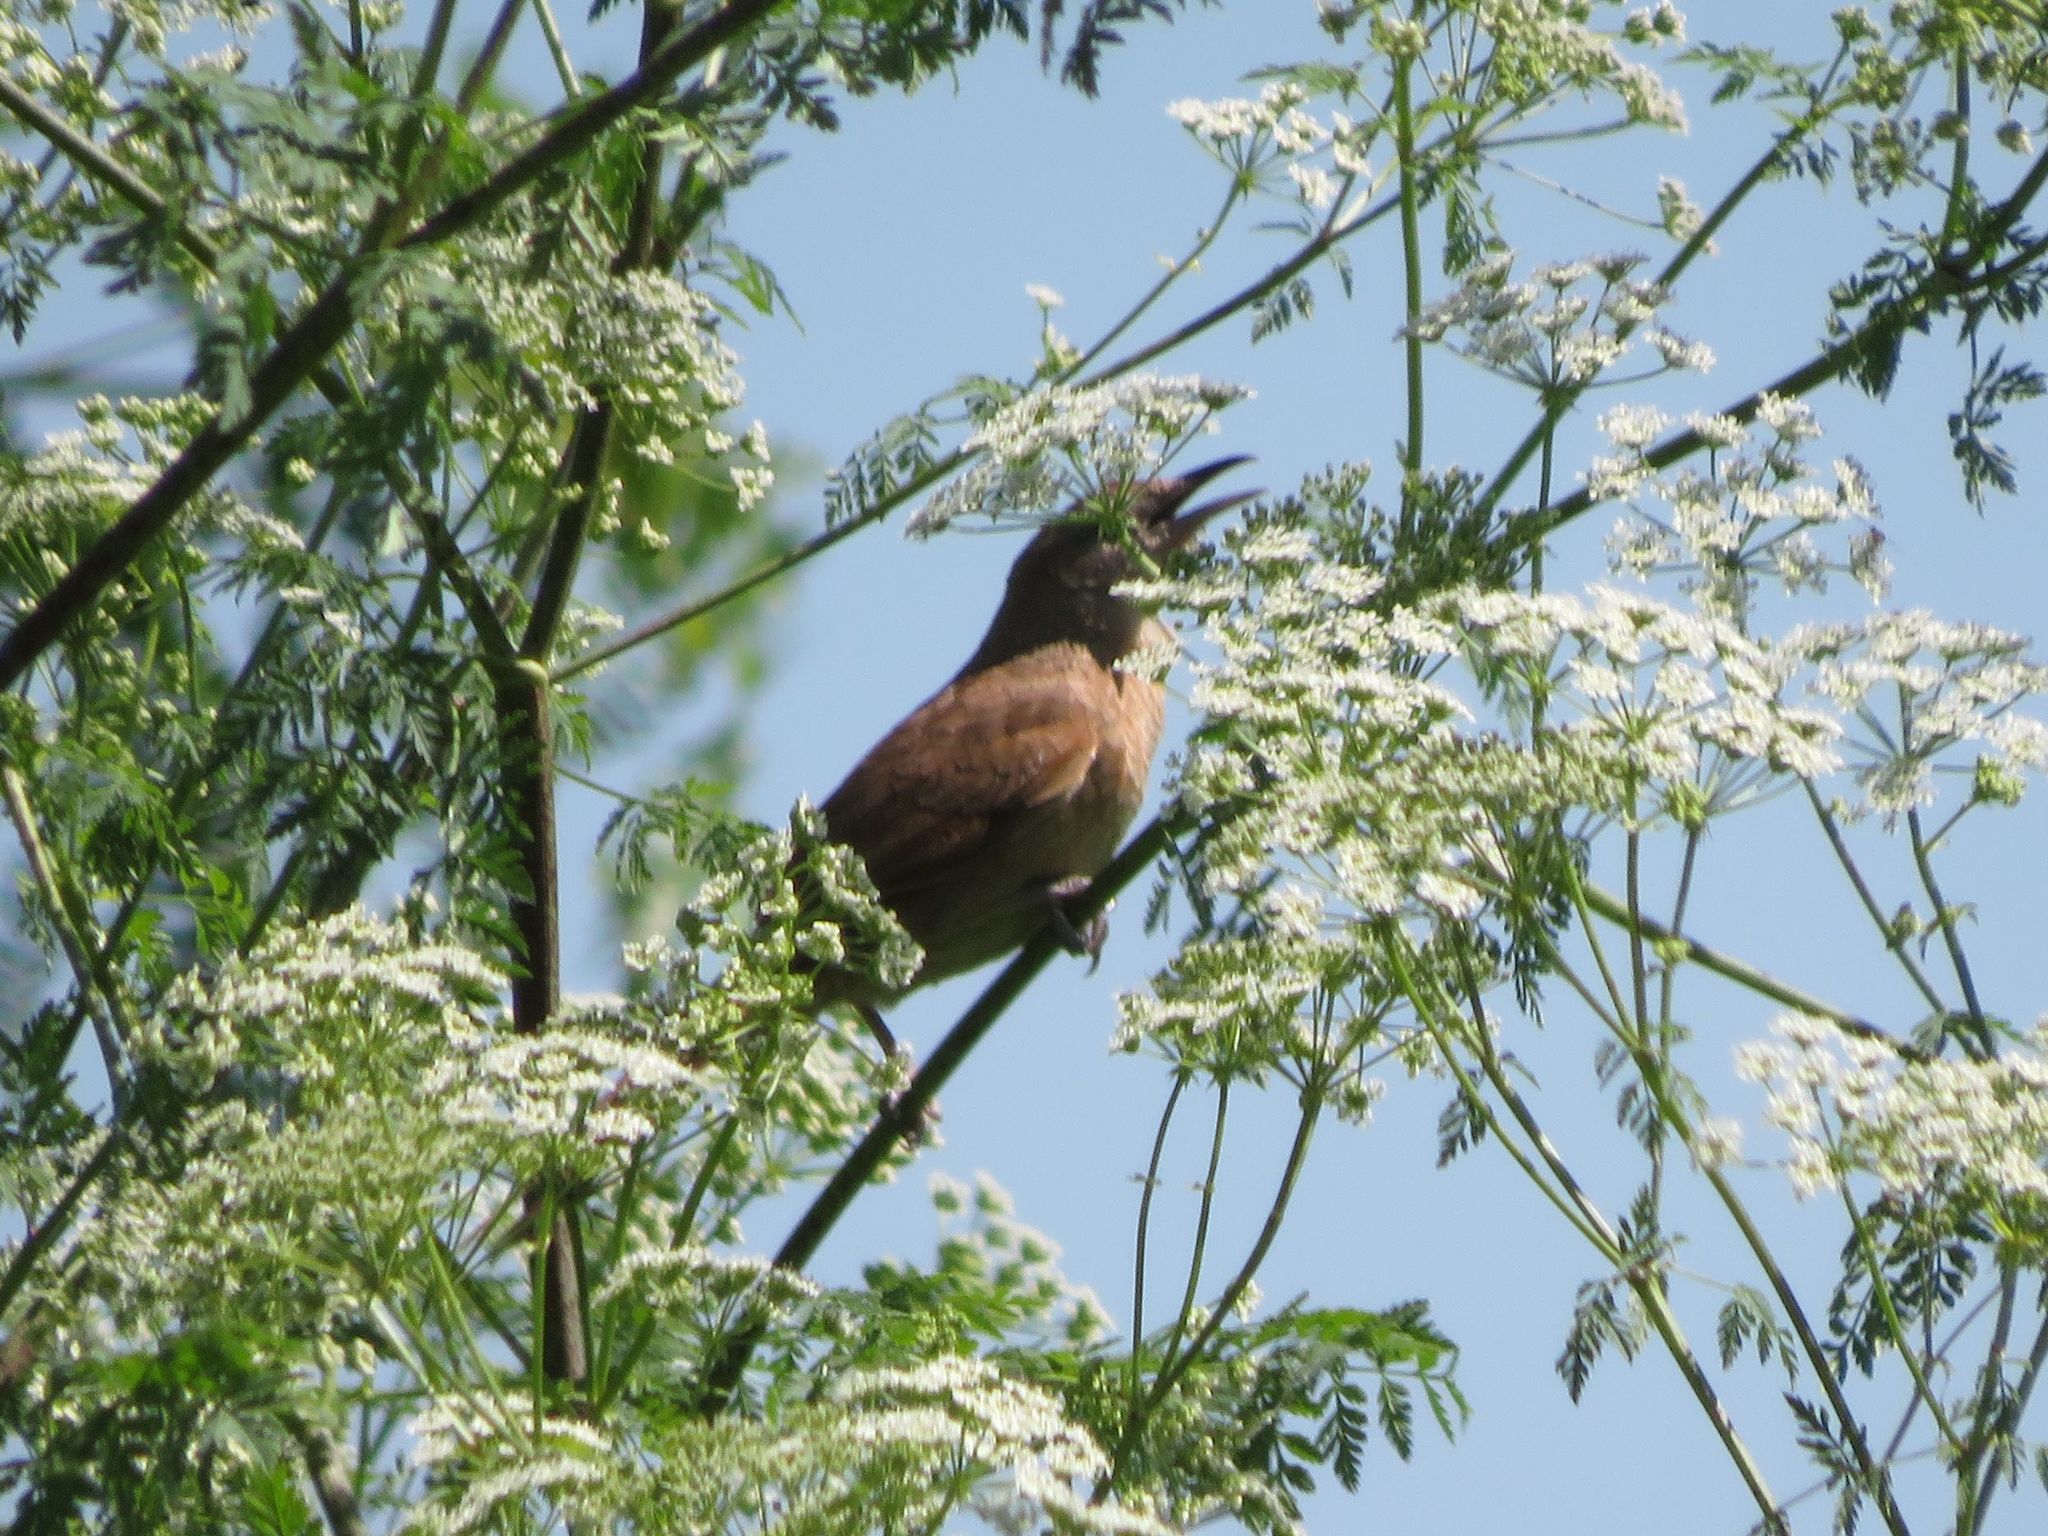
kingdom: Animalia
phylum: Chordata
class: Aves
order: Passeriformes
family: Furnariidae
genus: Phacellodomus
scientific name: Phacellodomus striaticollis
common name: Freckle-breasted thornbird
